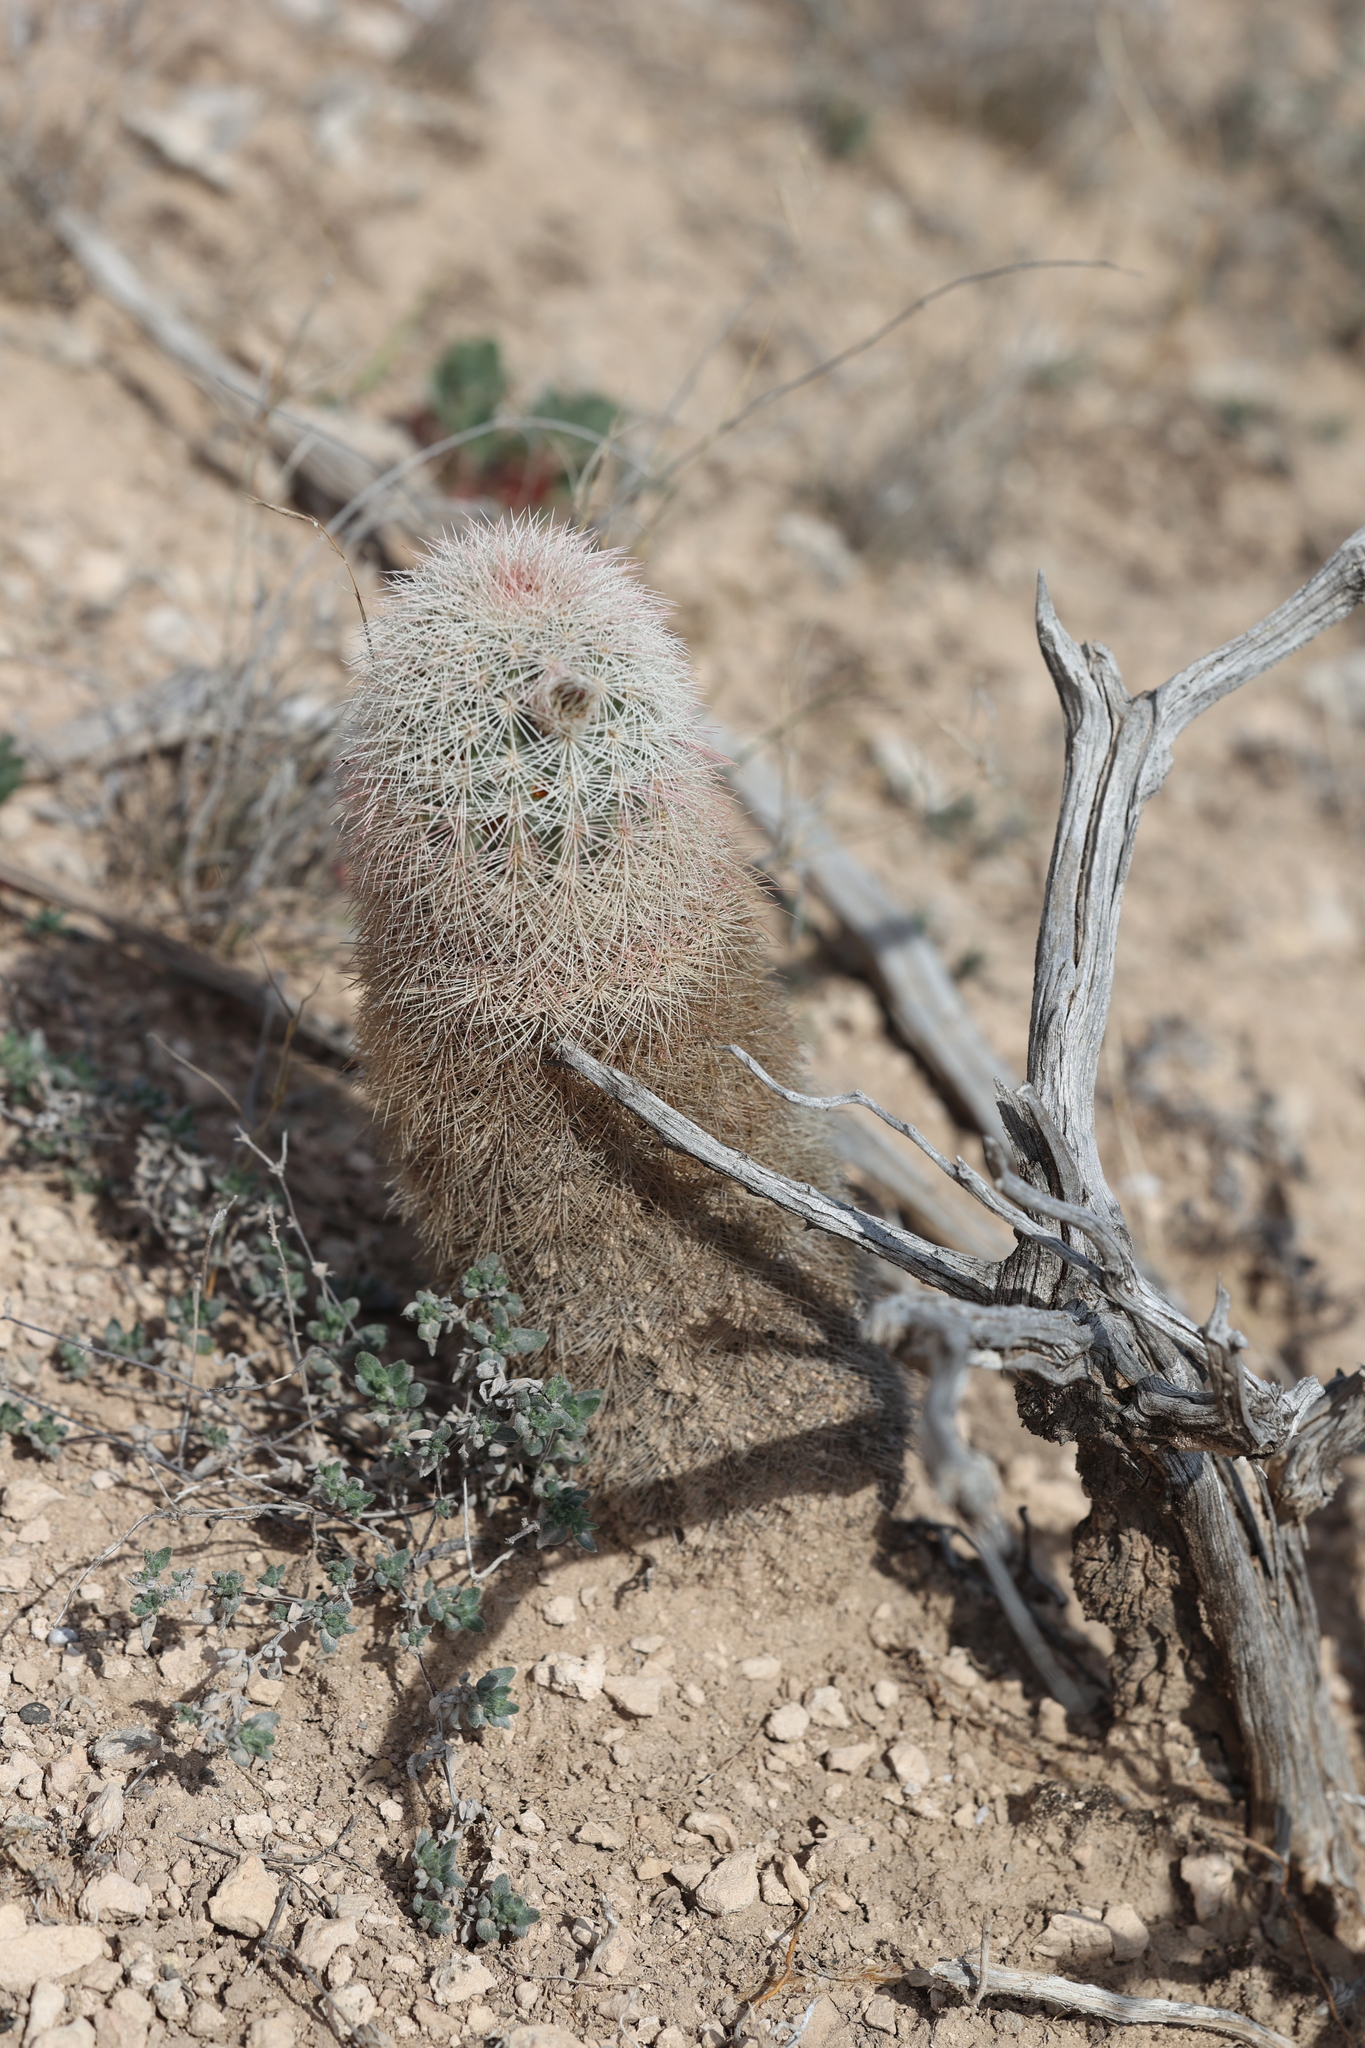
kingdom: Plantae
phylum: Tracheophyta
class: Magnoliopsida
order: Caryophyllales
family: Cactaceae
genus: Echinocereus
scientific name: Echinocereus dasyacanthus
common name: Spiny hedgehog cactus
